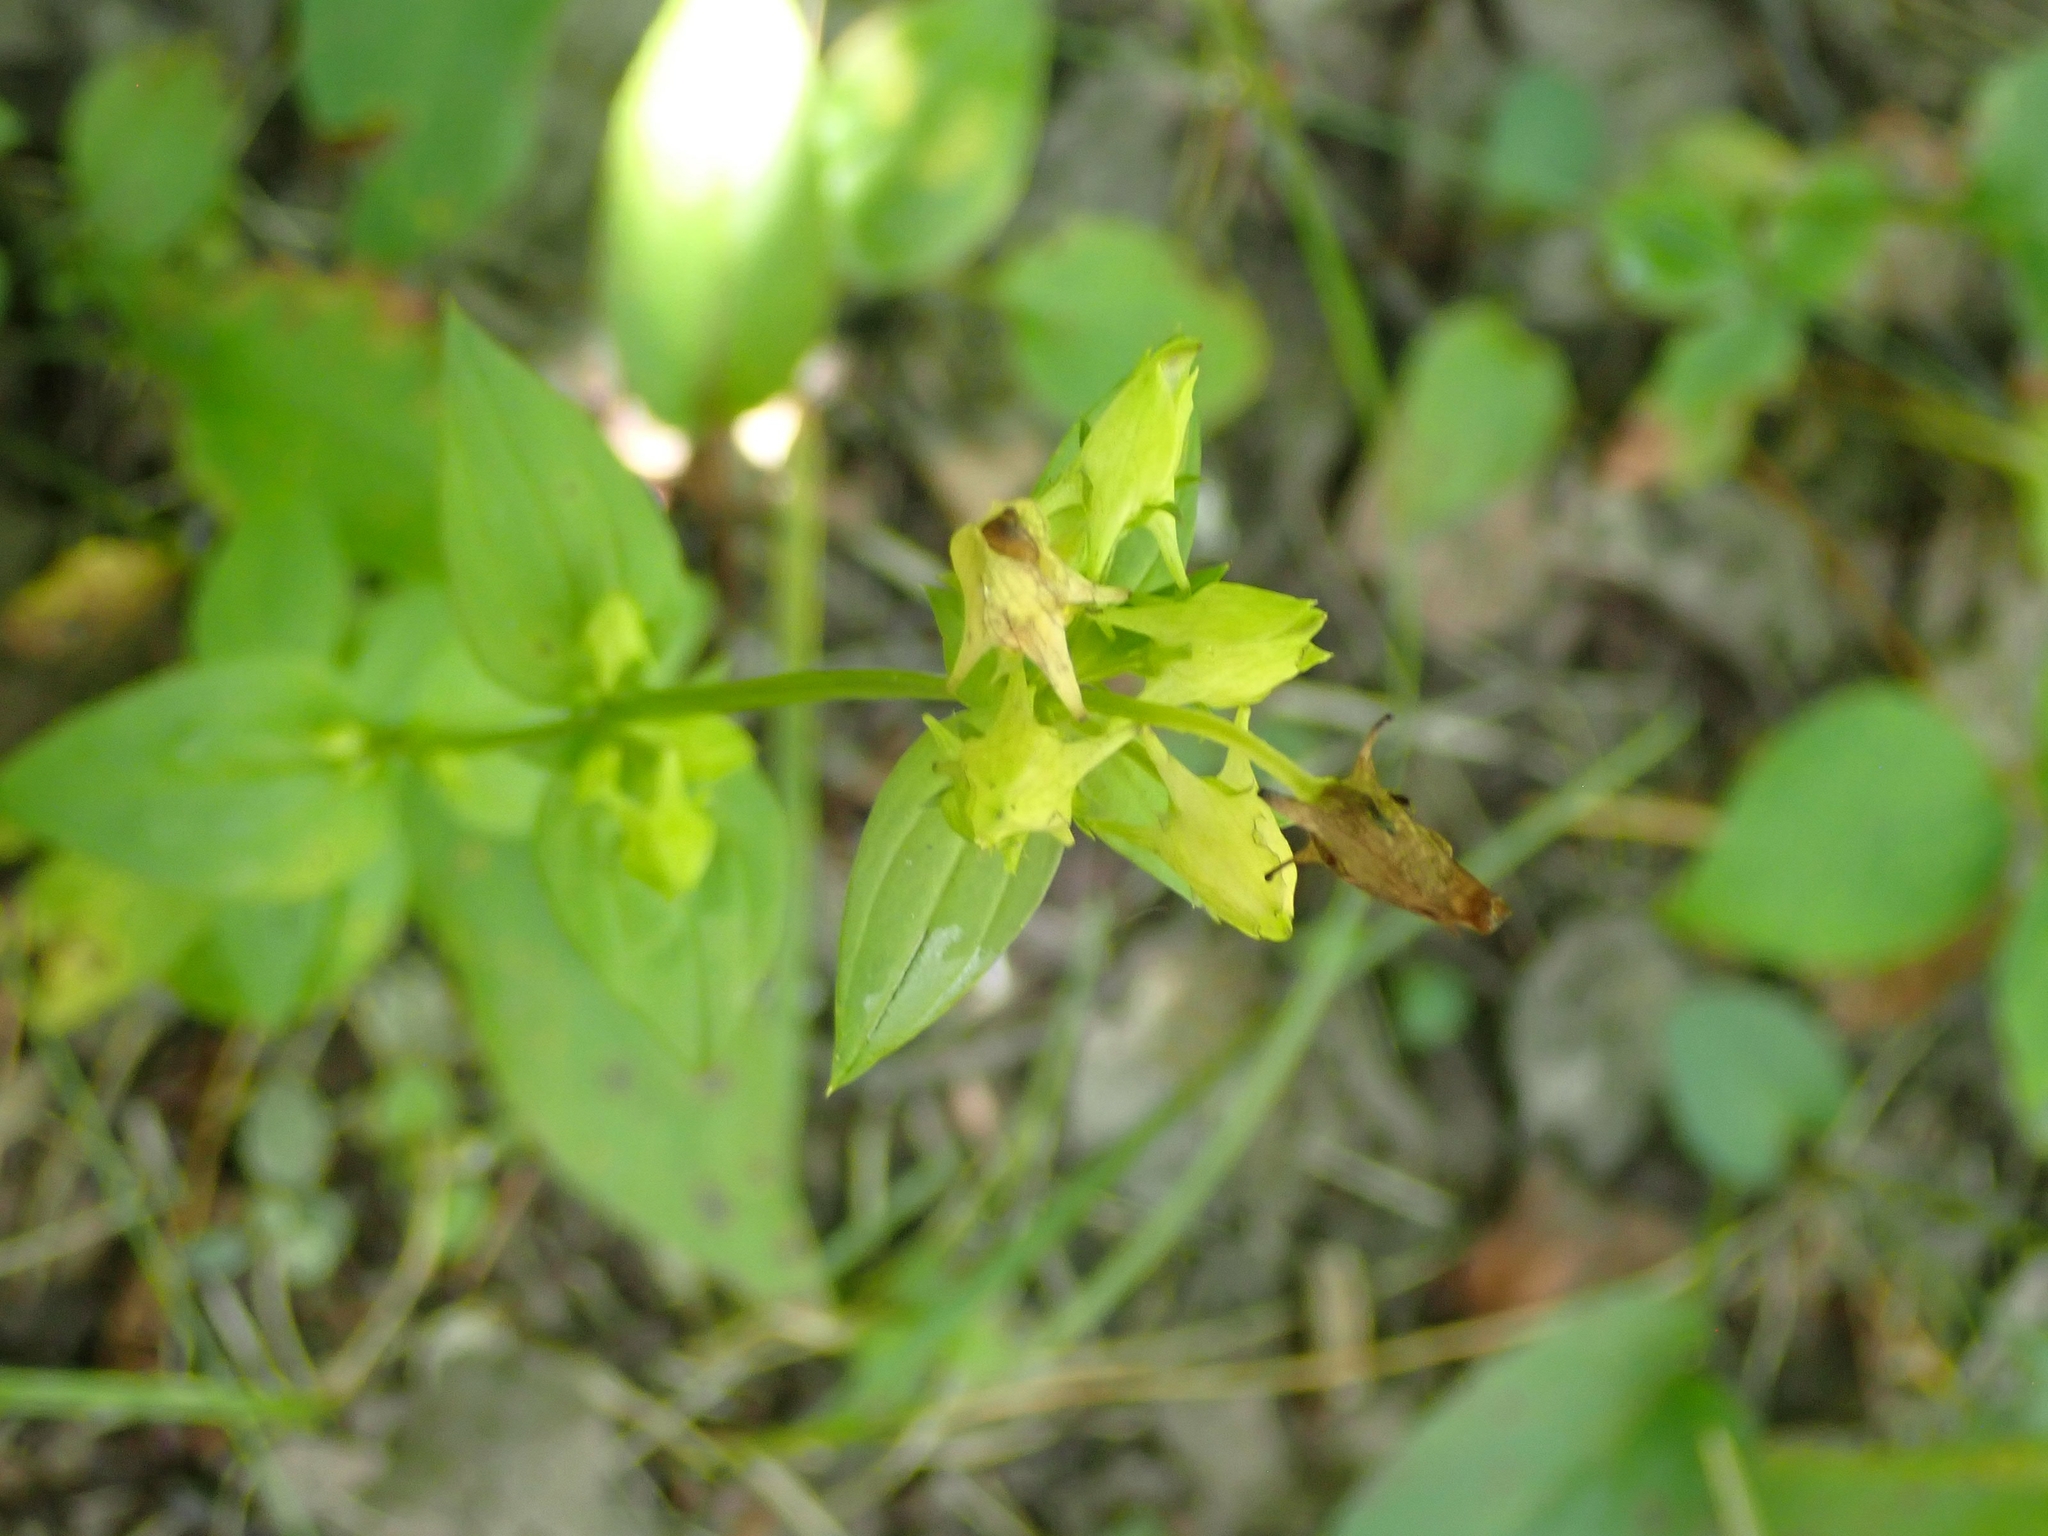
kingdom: Plantae
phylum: Tracheophyta
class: Magnoliopsida
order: Gentianales
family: Gentianaceae
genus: Halenia
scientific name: Halenia deflexa
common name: American spurred gentian
